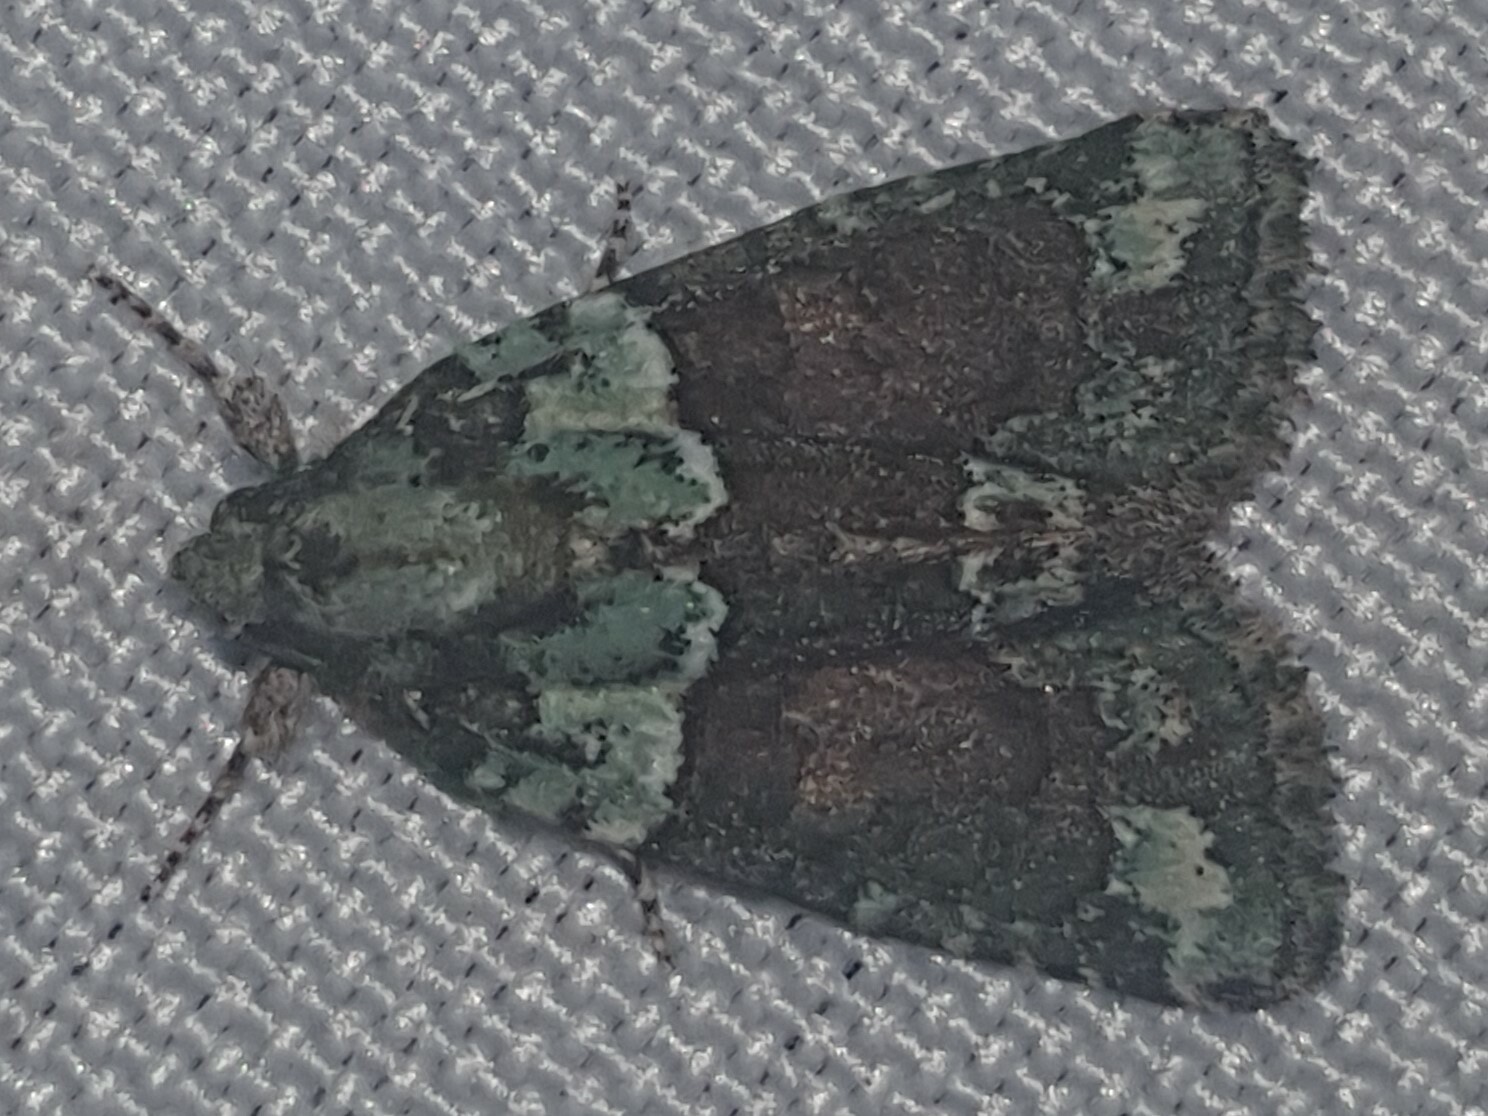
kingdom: Animalia
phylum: Arthropoda
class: Insecta
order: Lepidoptera
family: Noctuidae
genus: Cryphia
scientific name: Cryphia algae
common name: Tree-lichen beauty
